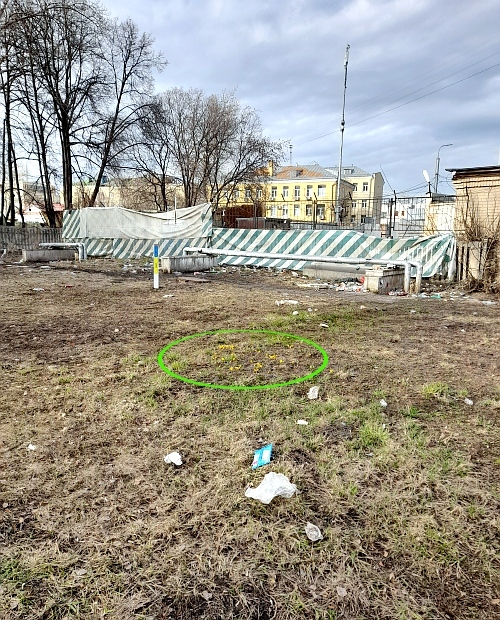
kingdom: Plantae
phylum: Tracheophyta
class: Magnoliopsida
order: Asterales
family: Asteraceae
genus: Tussilago
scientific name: Tussilago farfara
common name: Coltsfoot
